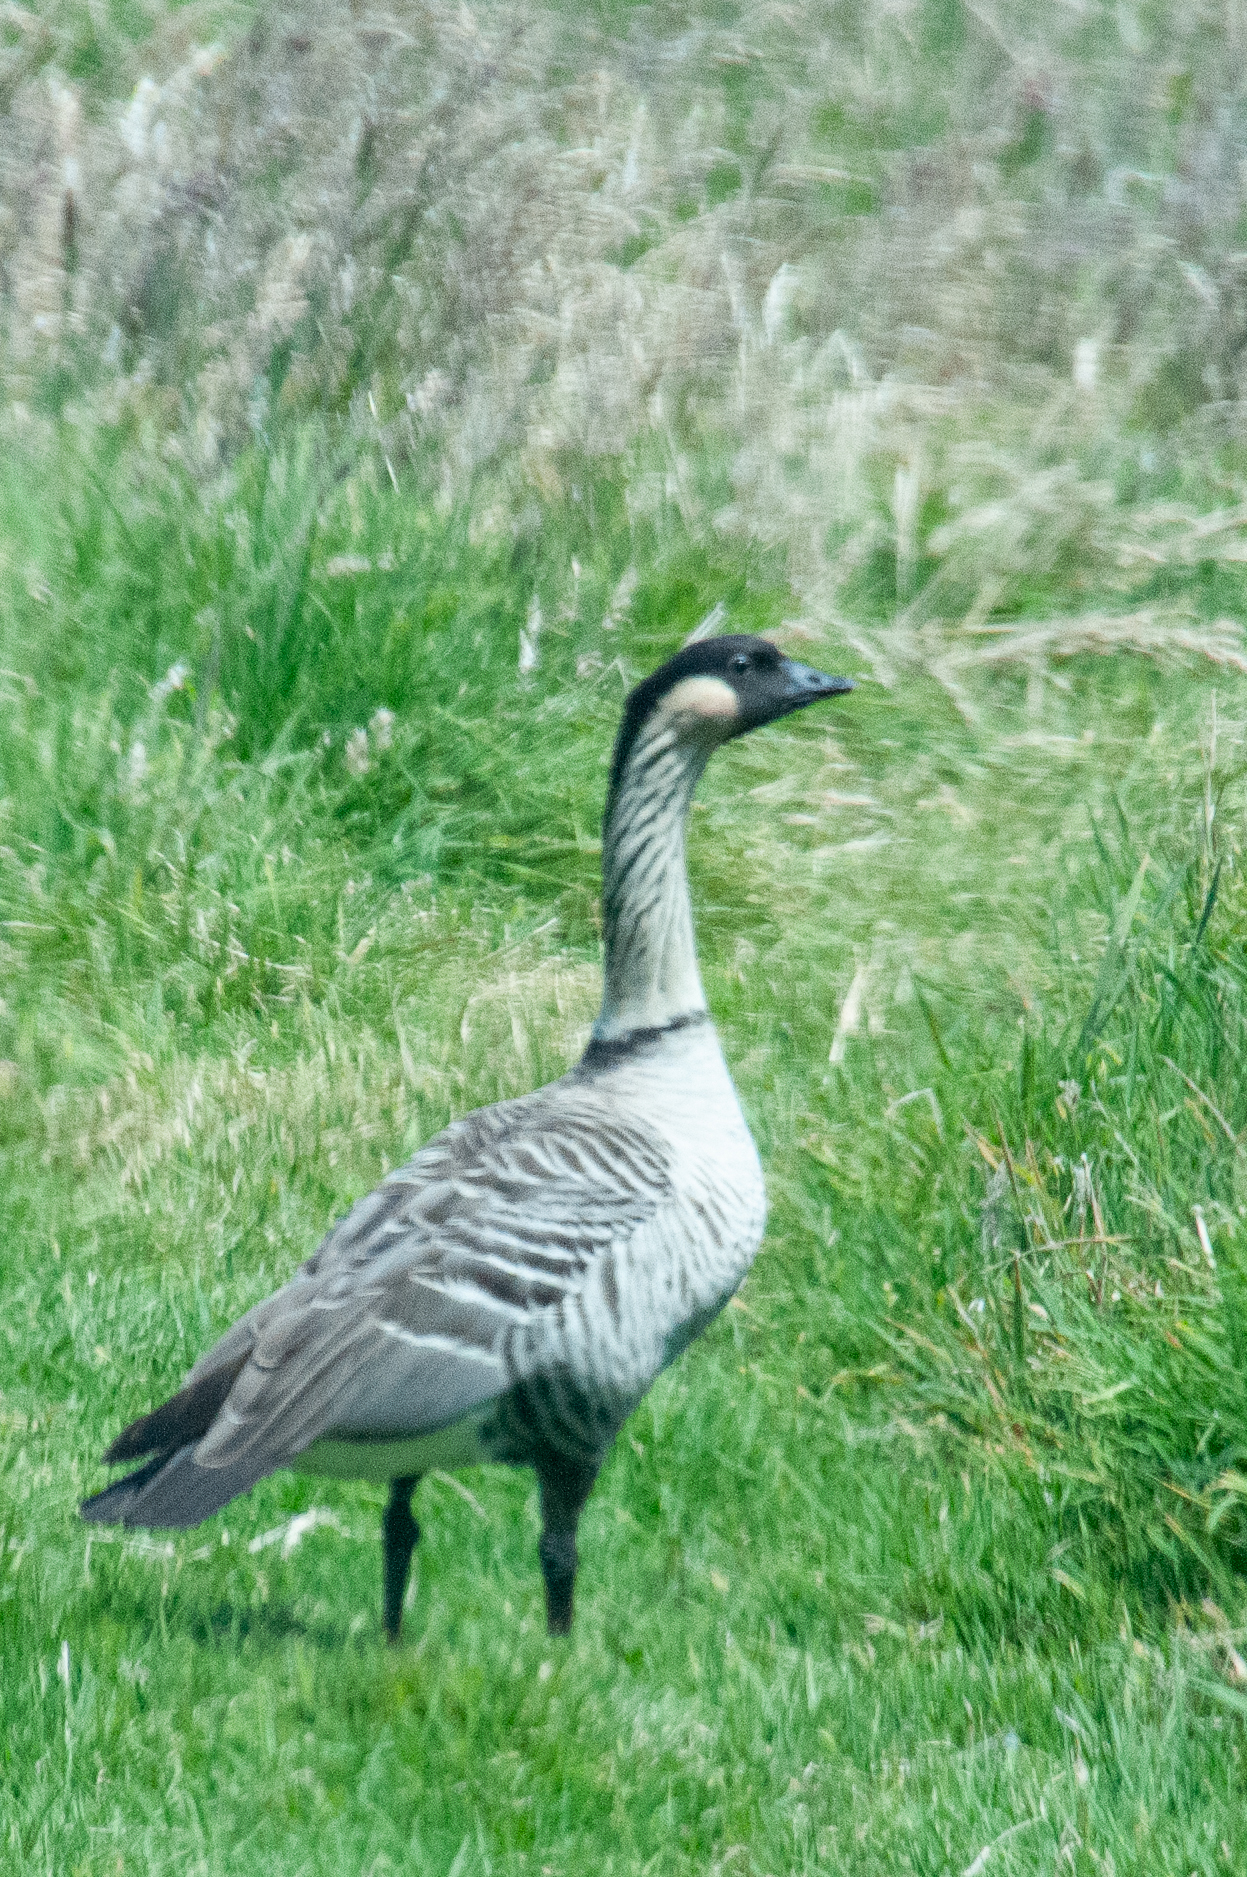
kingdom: Animalia
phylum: Chordata
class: Aves
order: Anseriformes
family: Anatidae
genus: Branta
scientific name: Branta sandvicensis
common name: Nene
